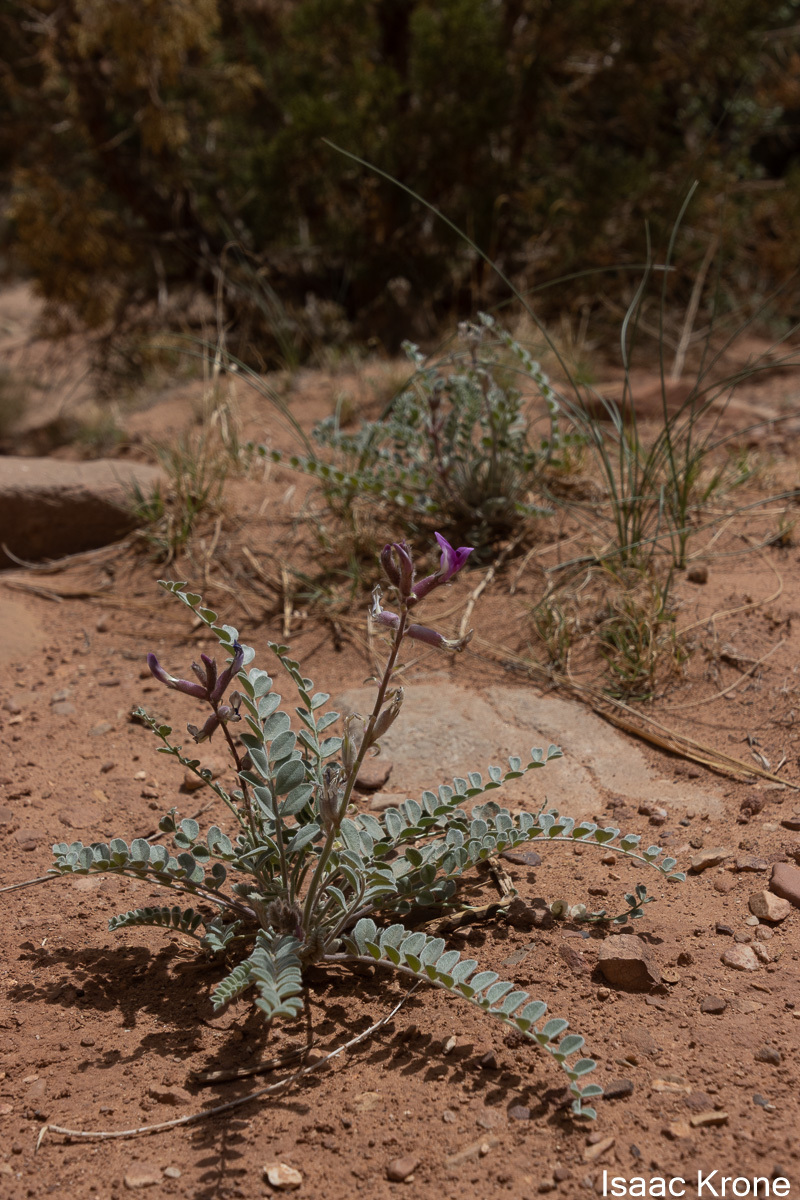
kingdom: Plantae
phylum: Tracheophyta
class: Magnoliopsida
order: Fabales
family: Fabaceae
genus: Astragalus
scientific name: Astragalus mollissimus
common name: Woolly locoweed
